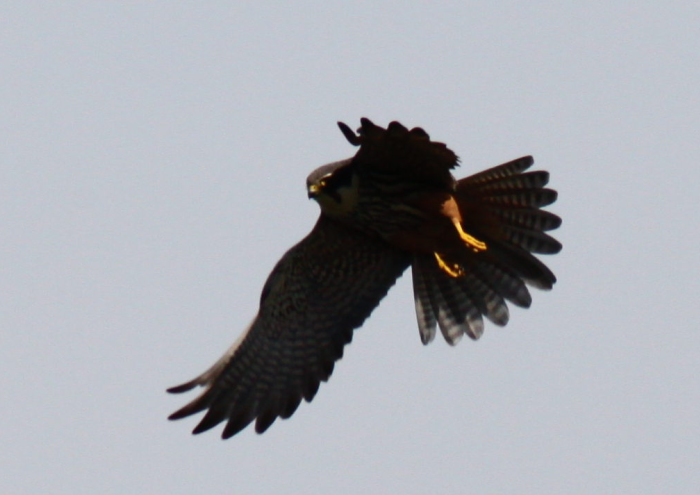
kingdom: Animalia
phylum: Chordata
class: Aves
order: Falconiformes
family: Falconidae
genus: Falco
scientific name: Falco subbuteo
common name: Eurasian hobby
